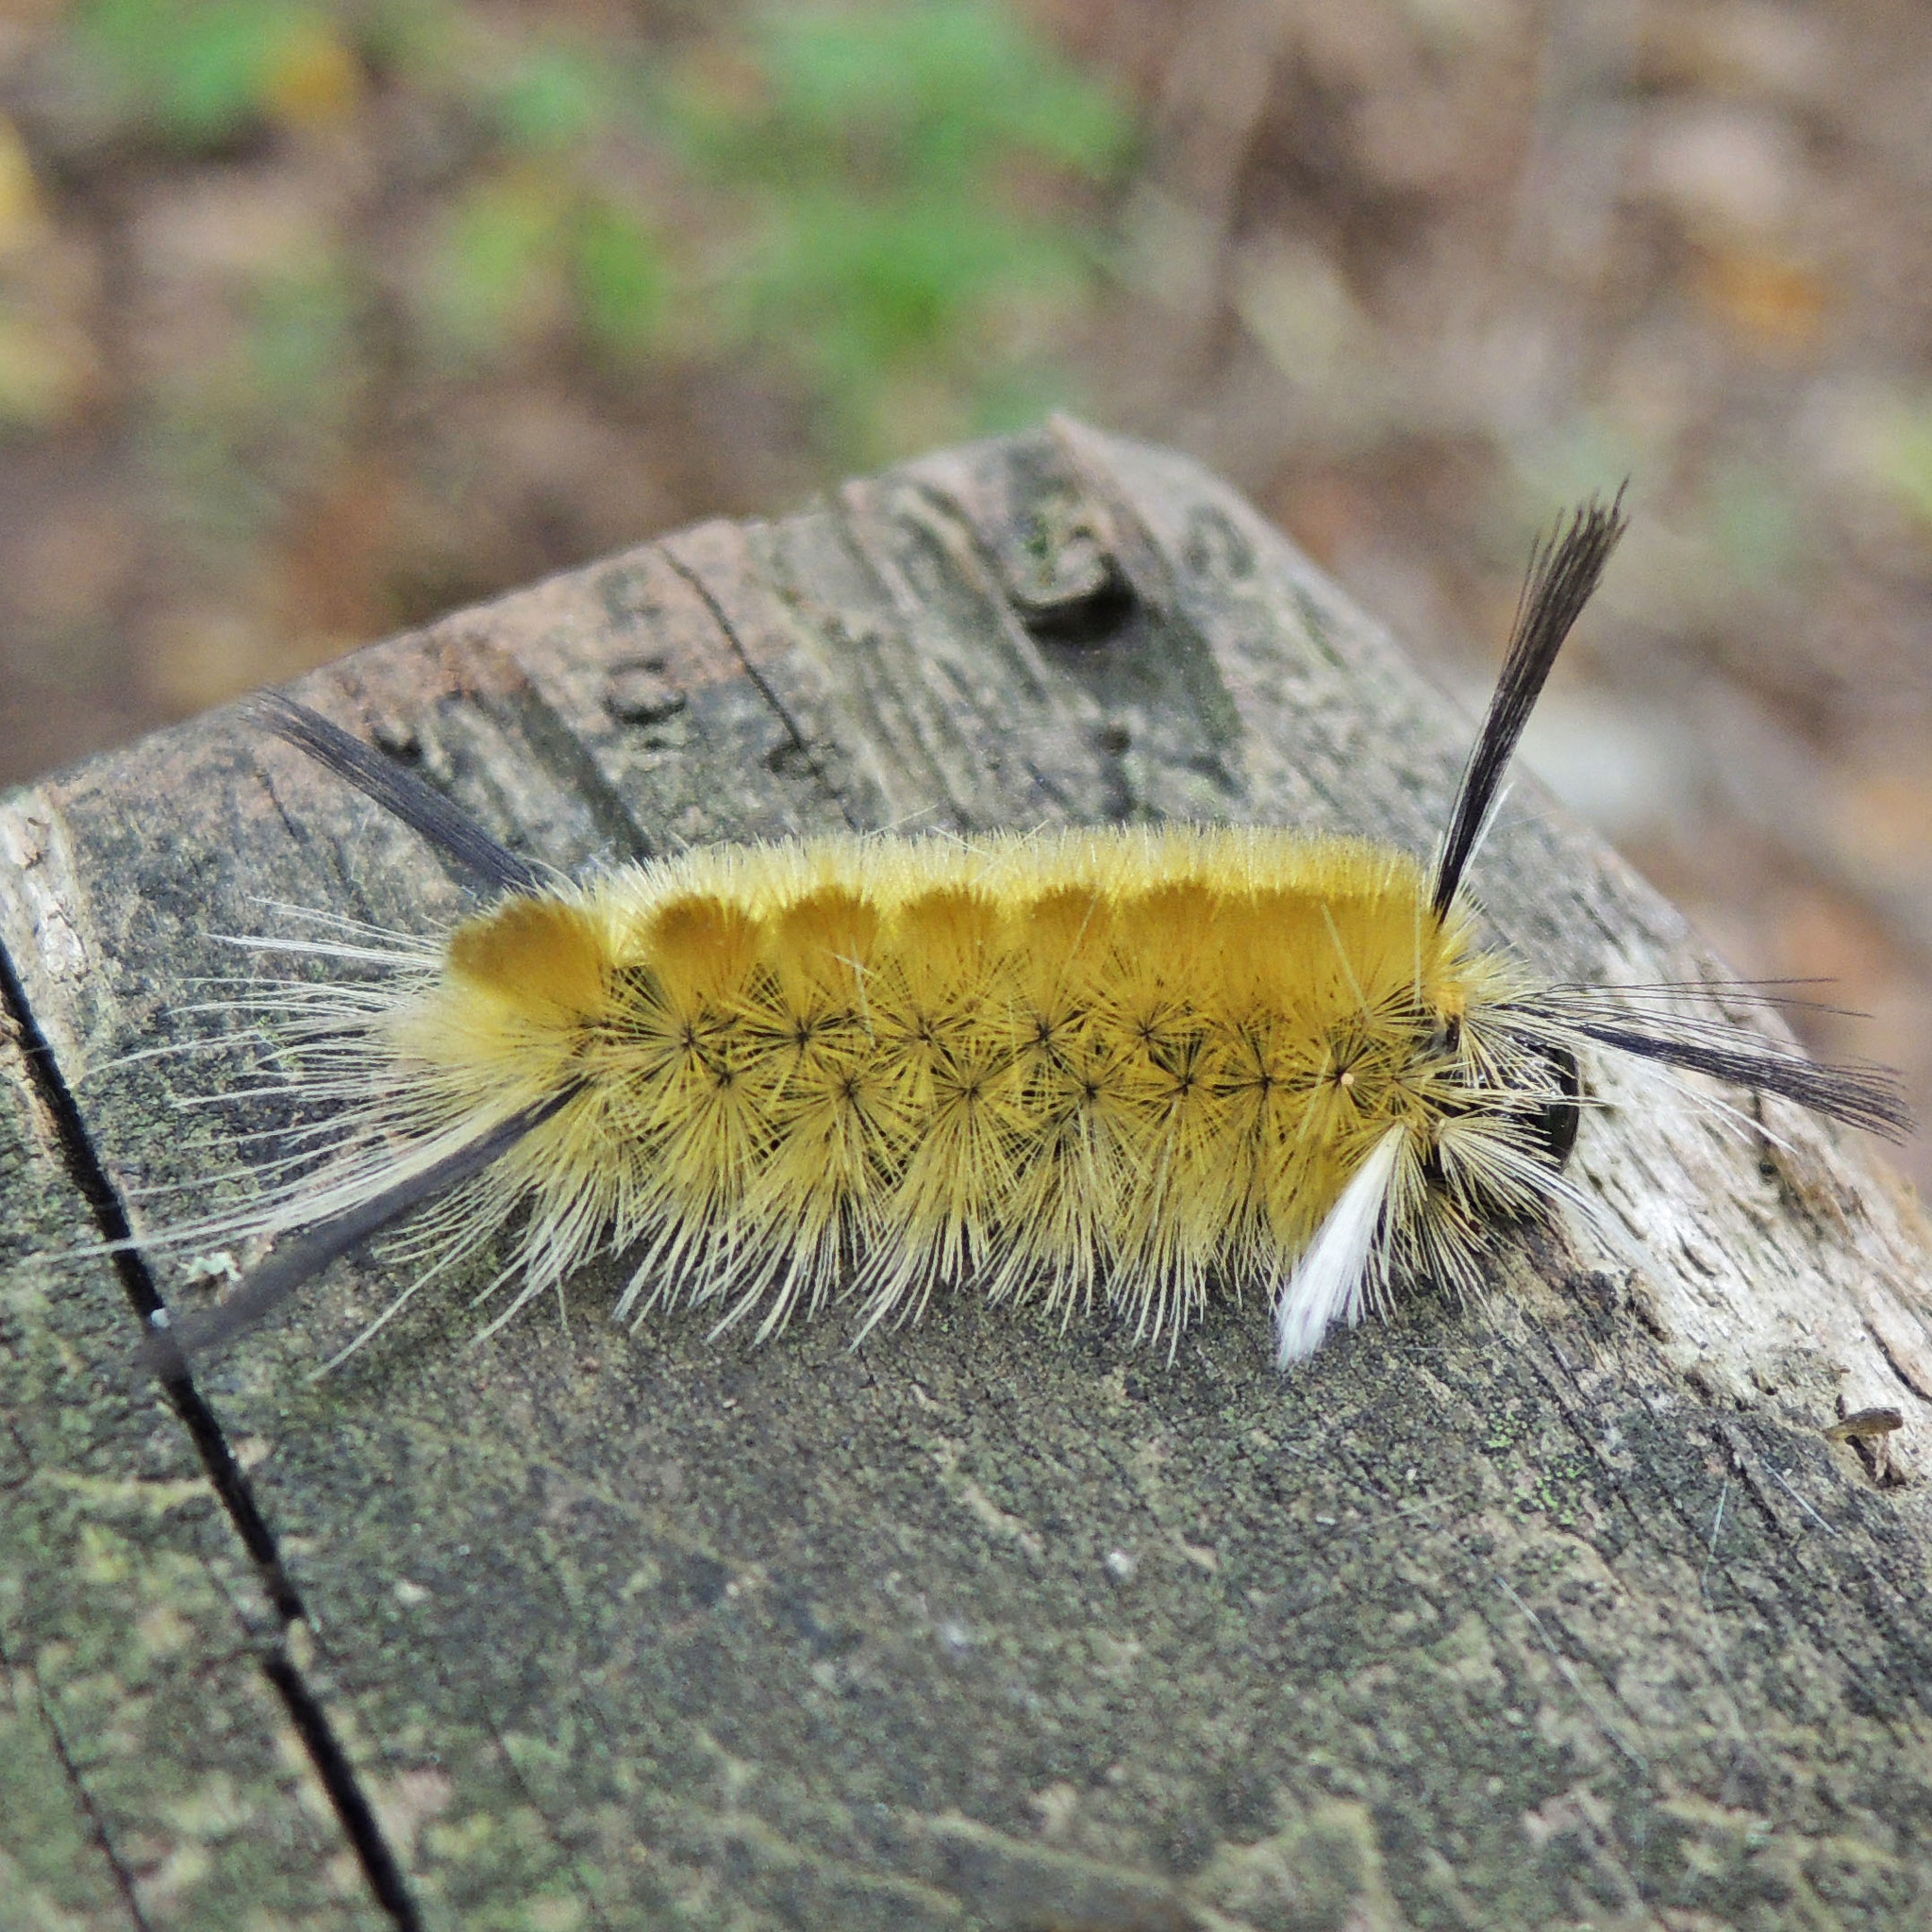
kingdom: Animalia
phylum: Arthropoda
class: Insecta
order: Lepidoptera
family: Erebidae
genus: Halysidota
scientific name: Halysidota tessellaris
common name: Banded tussock moth
